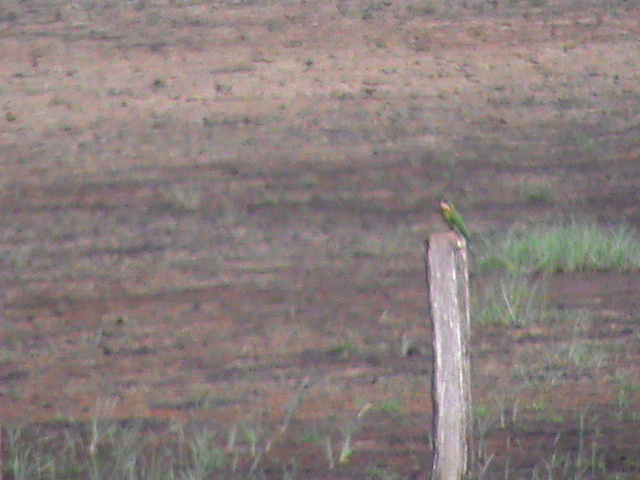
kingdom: Animalia
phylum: Chordata
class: Aves
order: Coraciiformes
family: Meropidae
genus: Merops
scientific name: Merops philippinus
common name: Blue-tailed bee-eater
